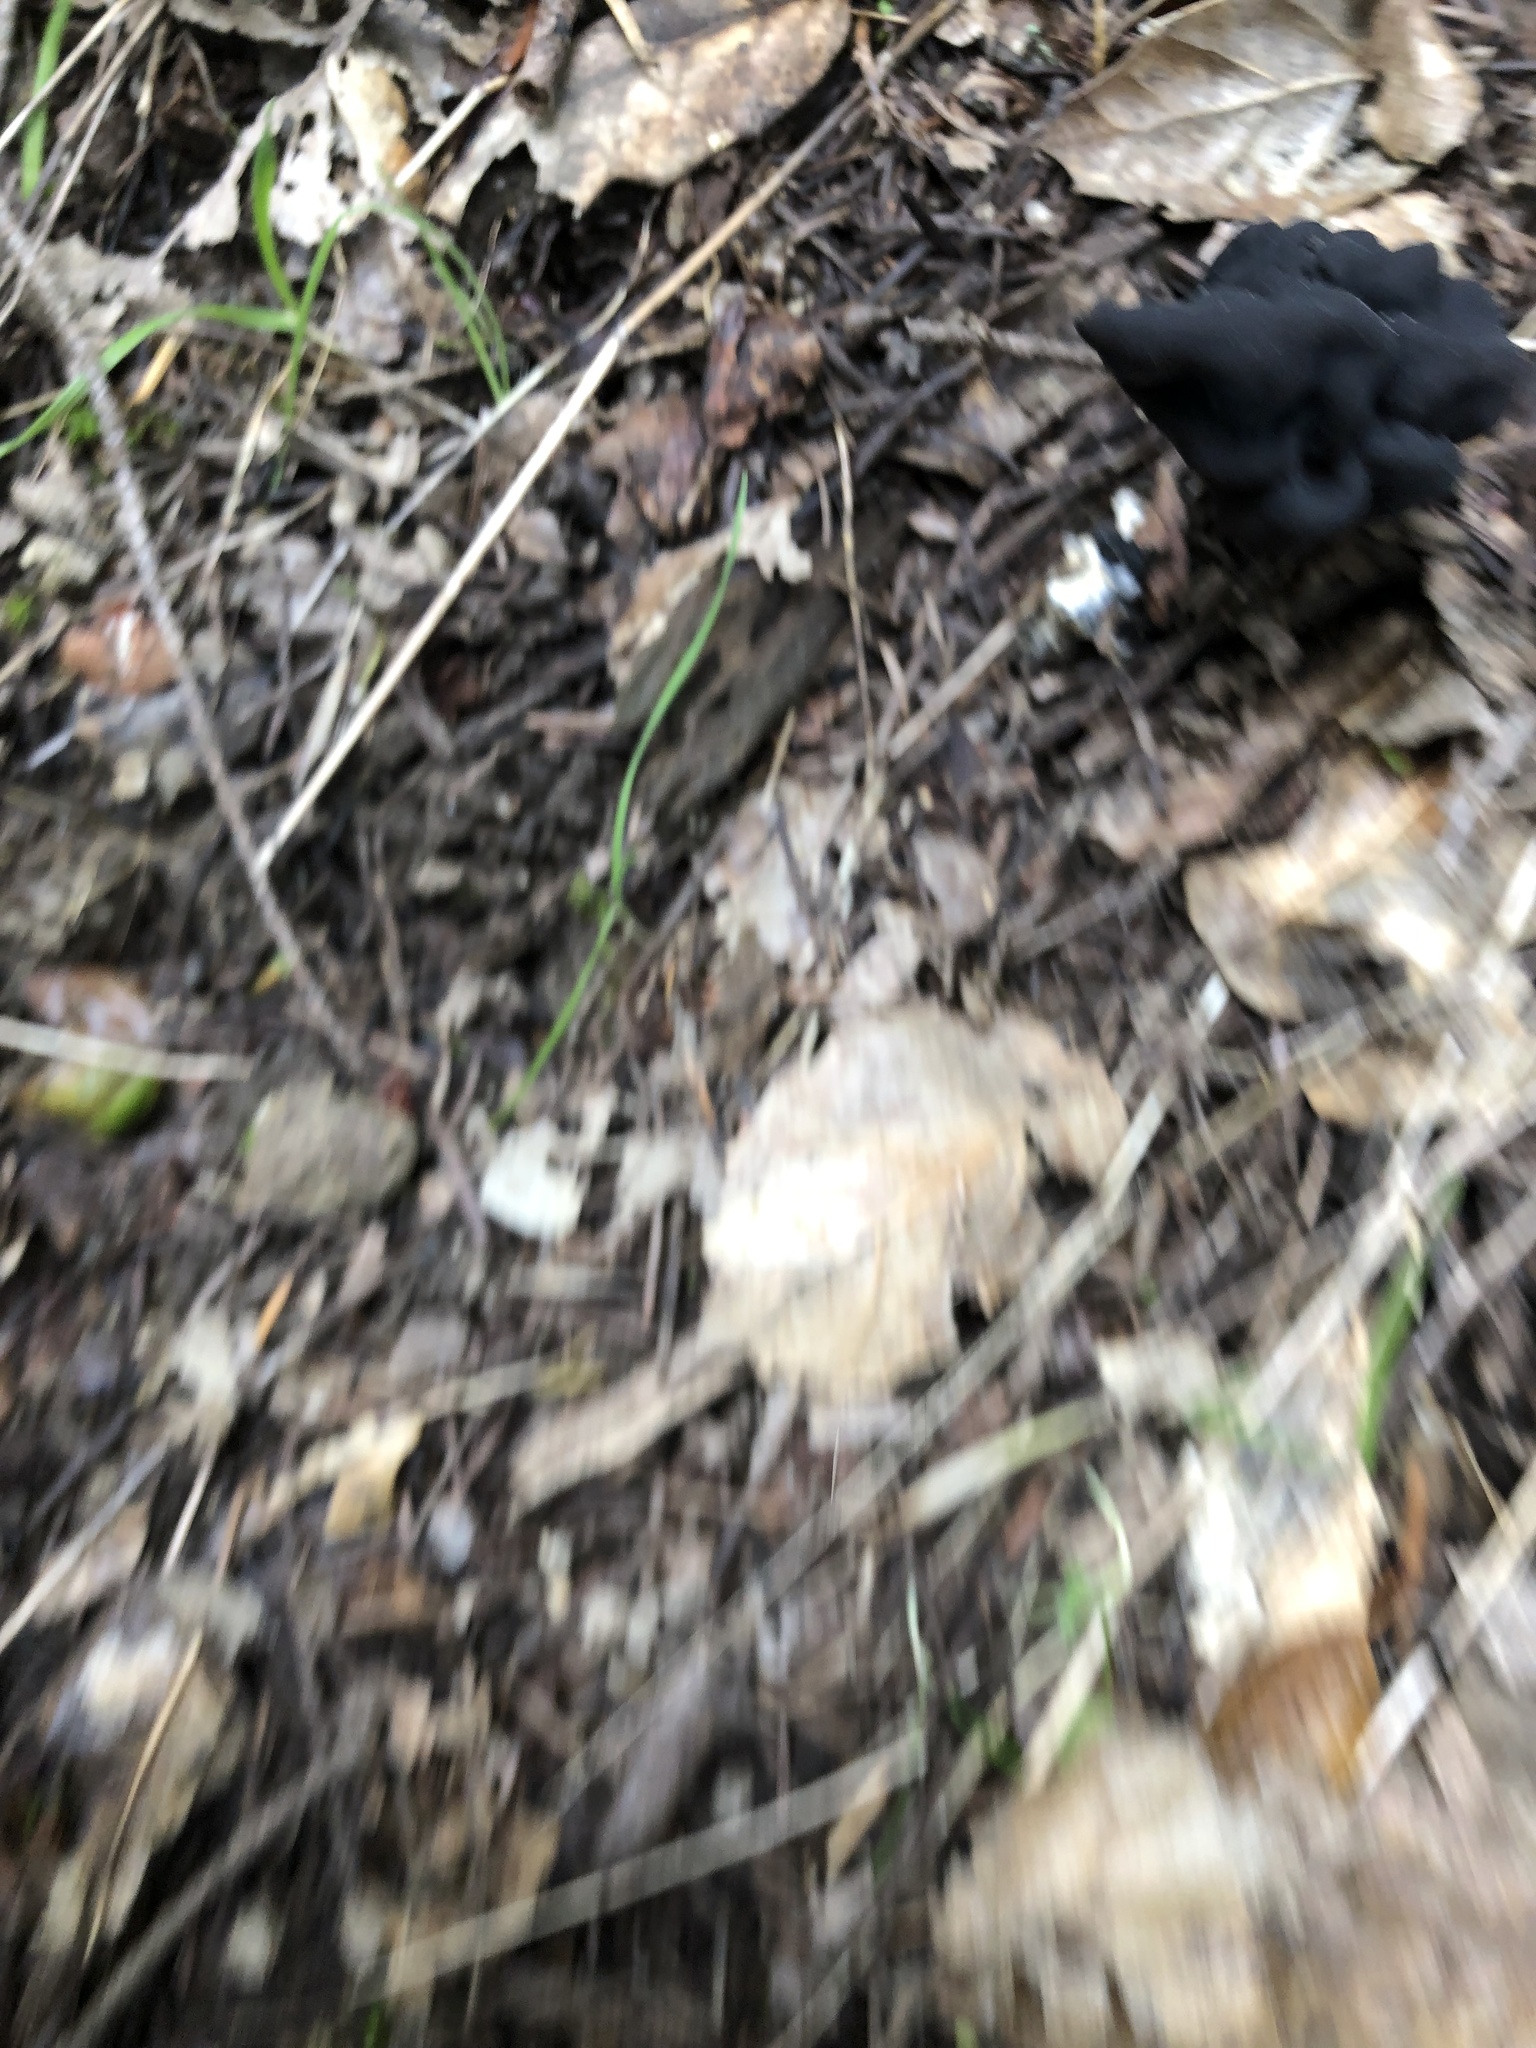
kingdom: Fungi
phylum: Ascomycota
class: Pezizomycetes
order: Pezizales
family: Helvellaceae
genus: Helvella
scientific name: Helvella dryophila
